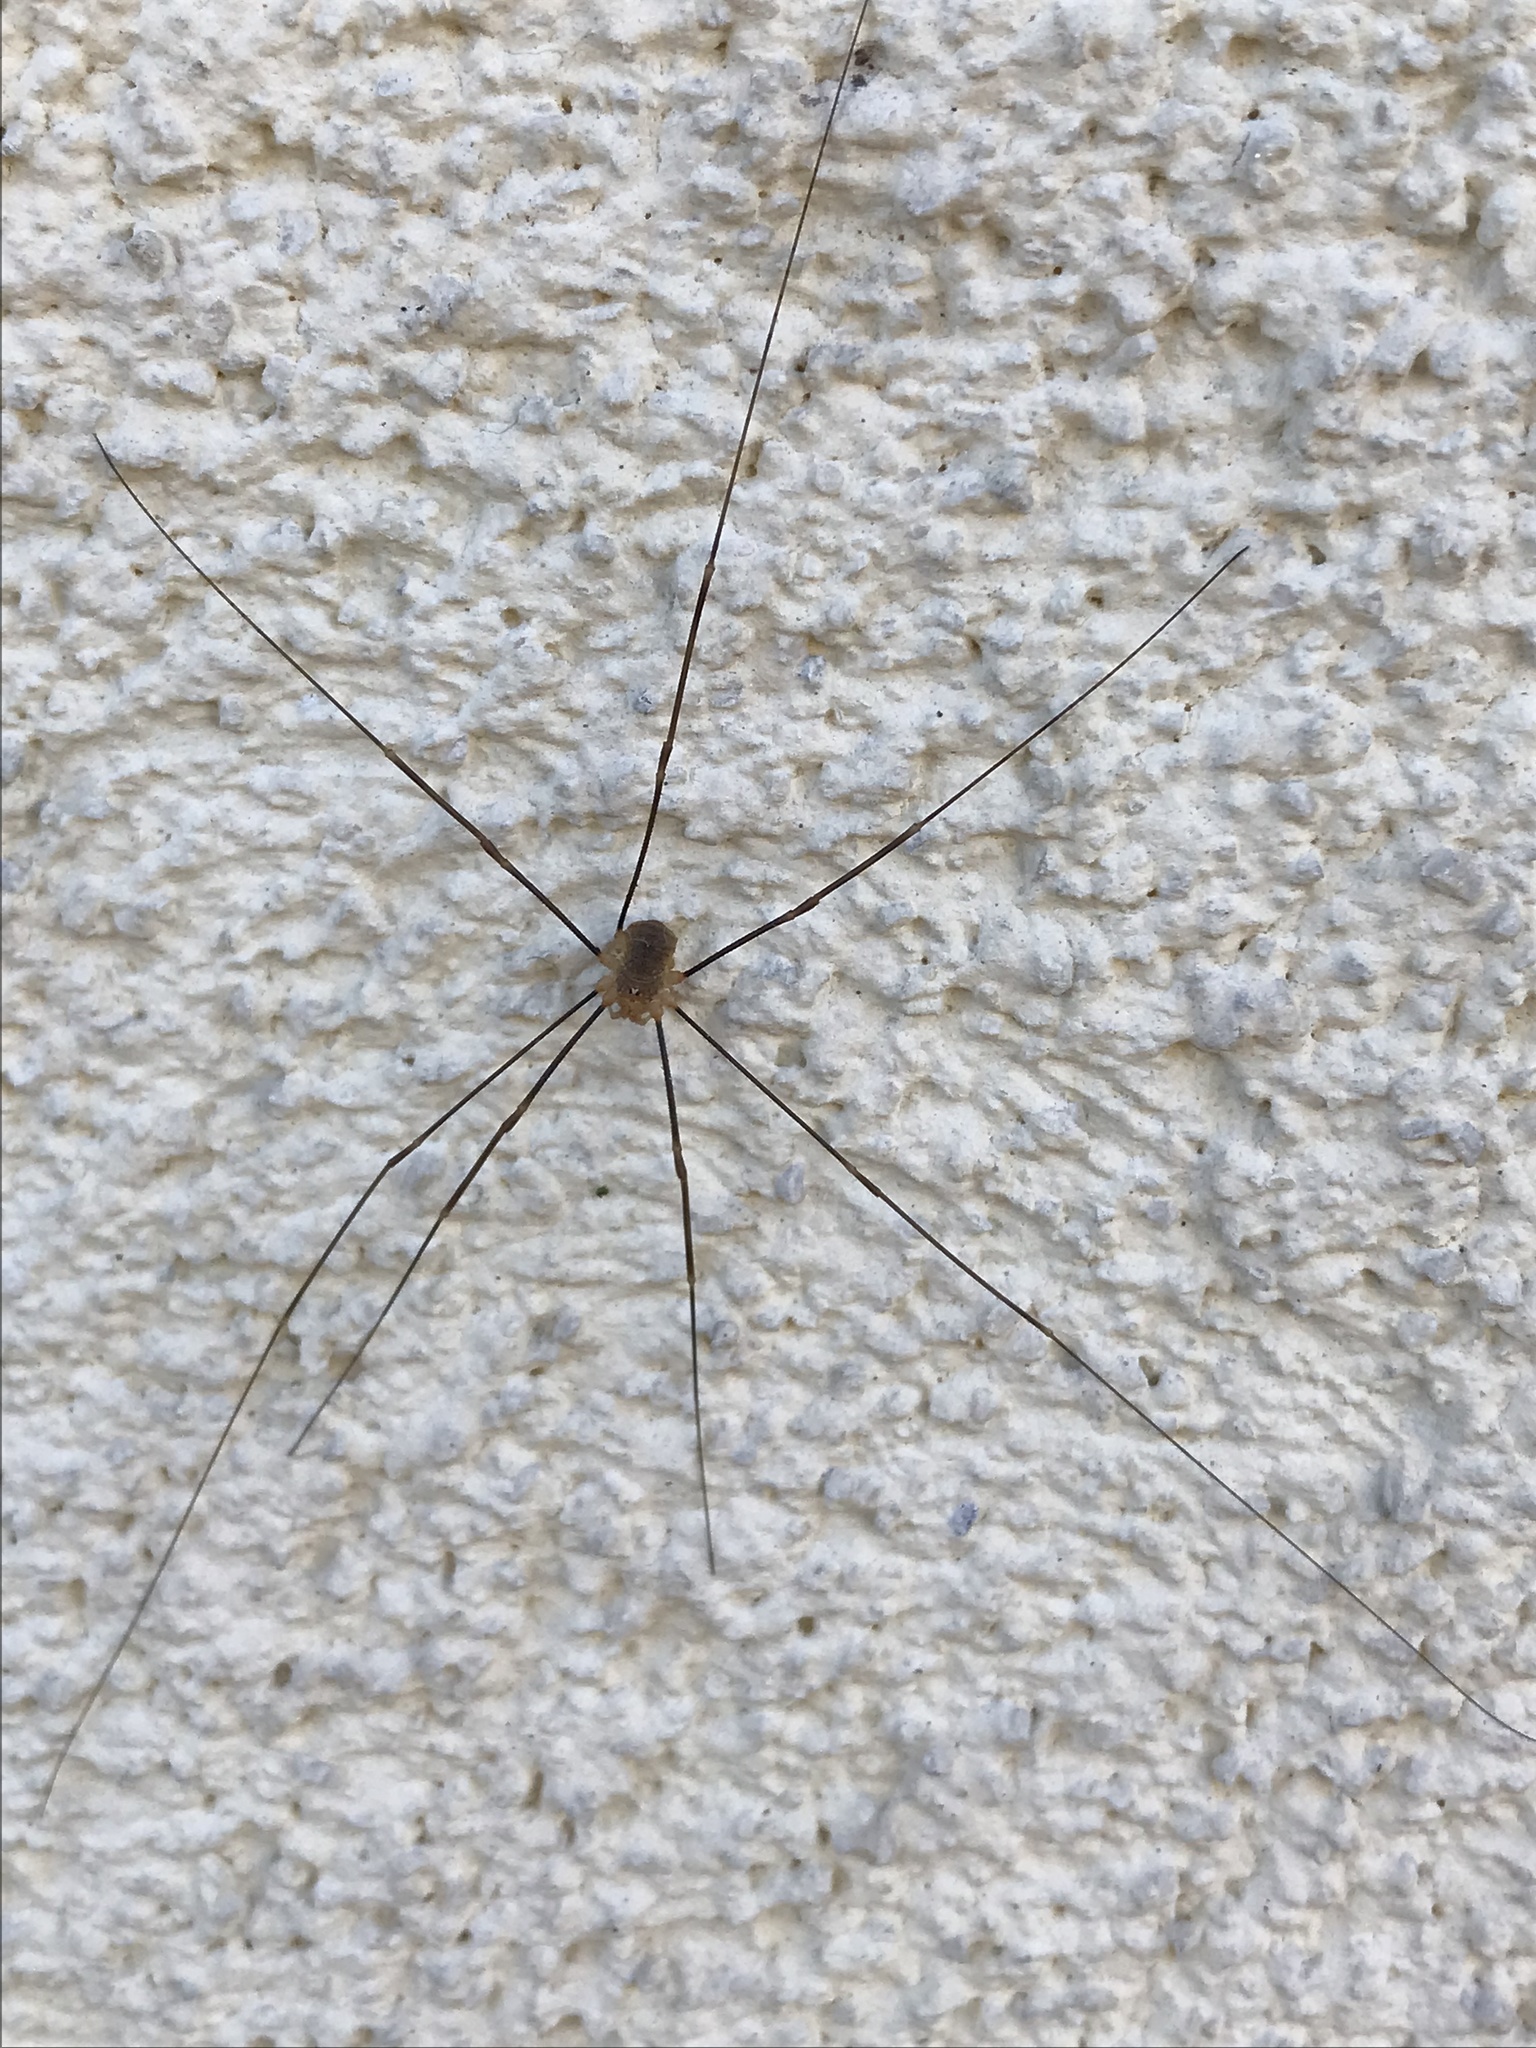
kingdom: Animalia
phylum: Arthropoda
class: Arachnida
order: Opiliones
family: Phalangiidae
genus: Opilio
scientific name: Opilio canestrinii
